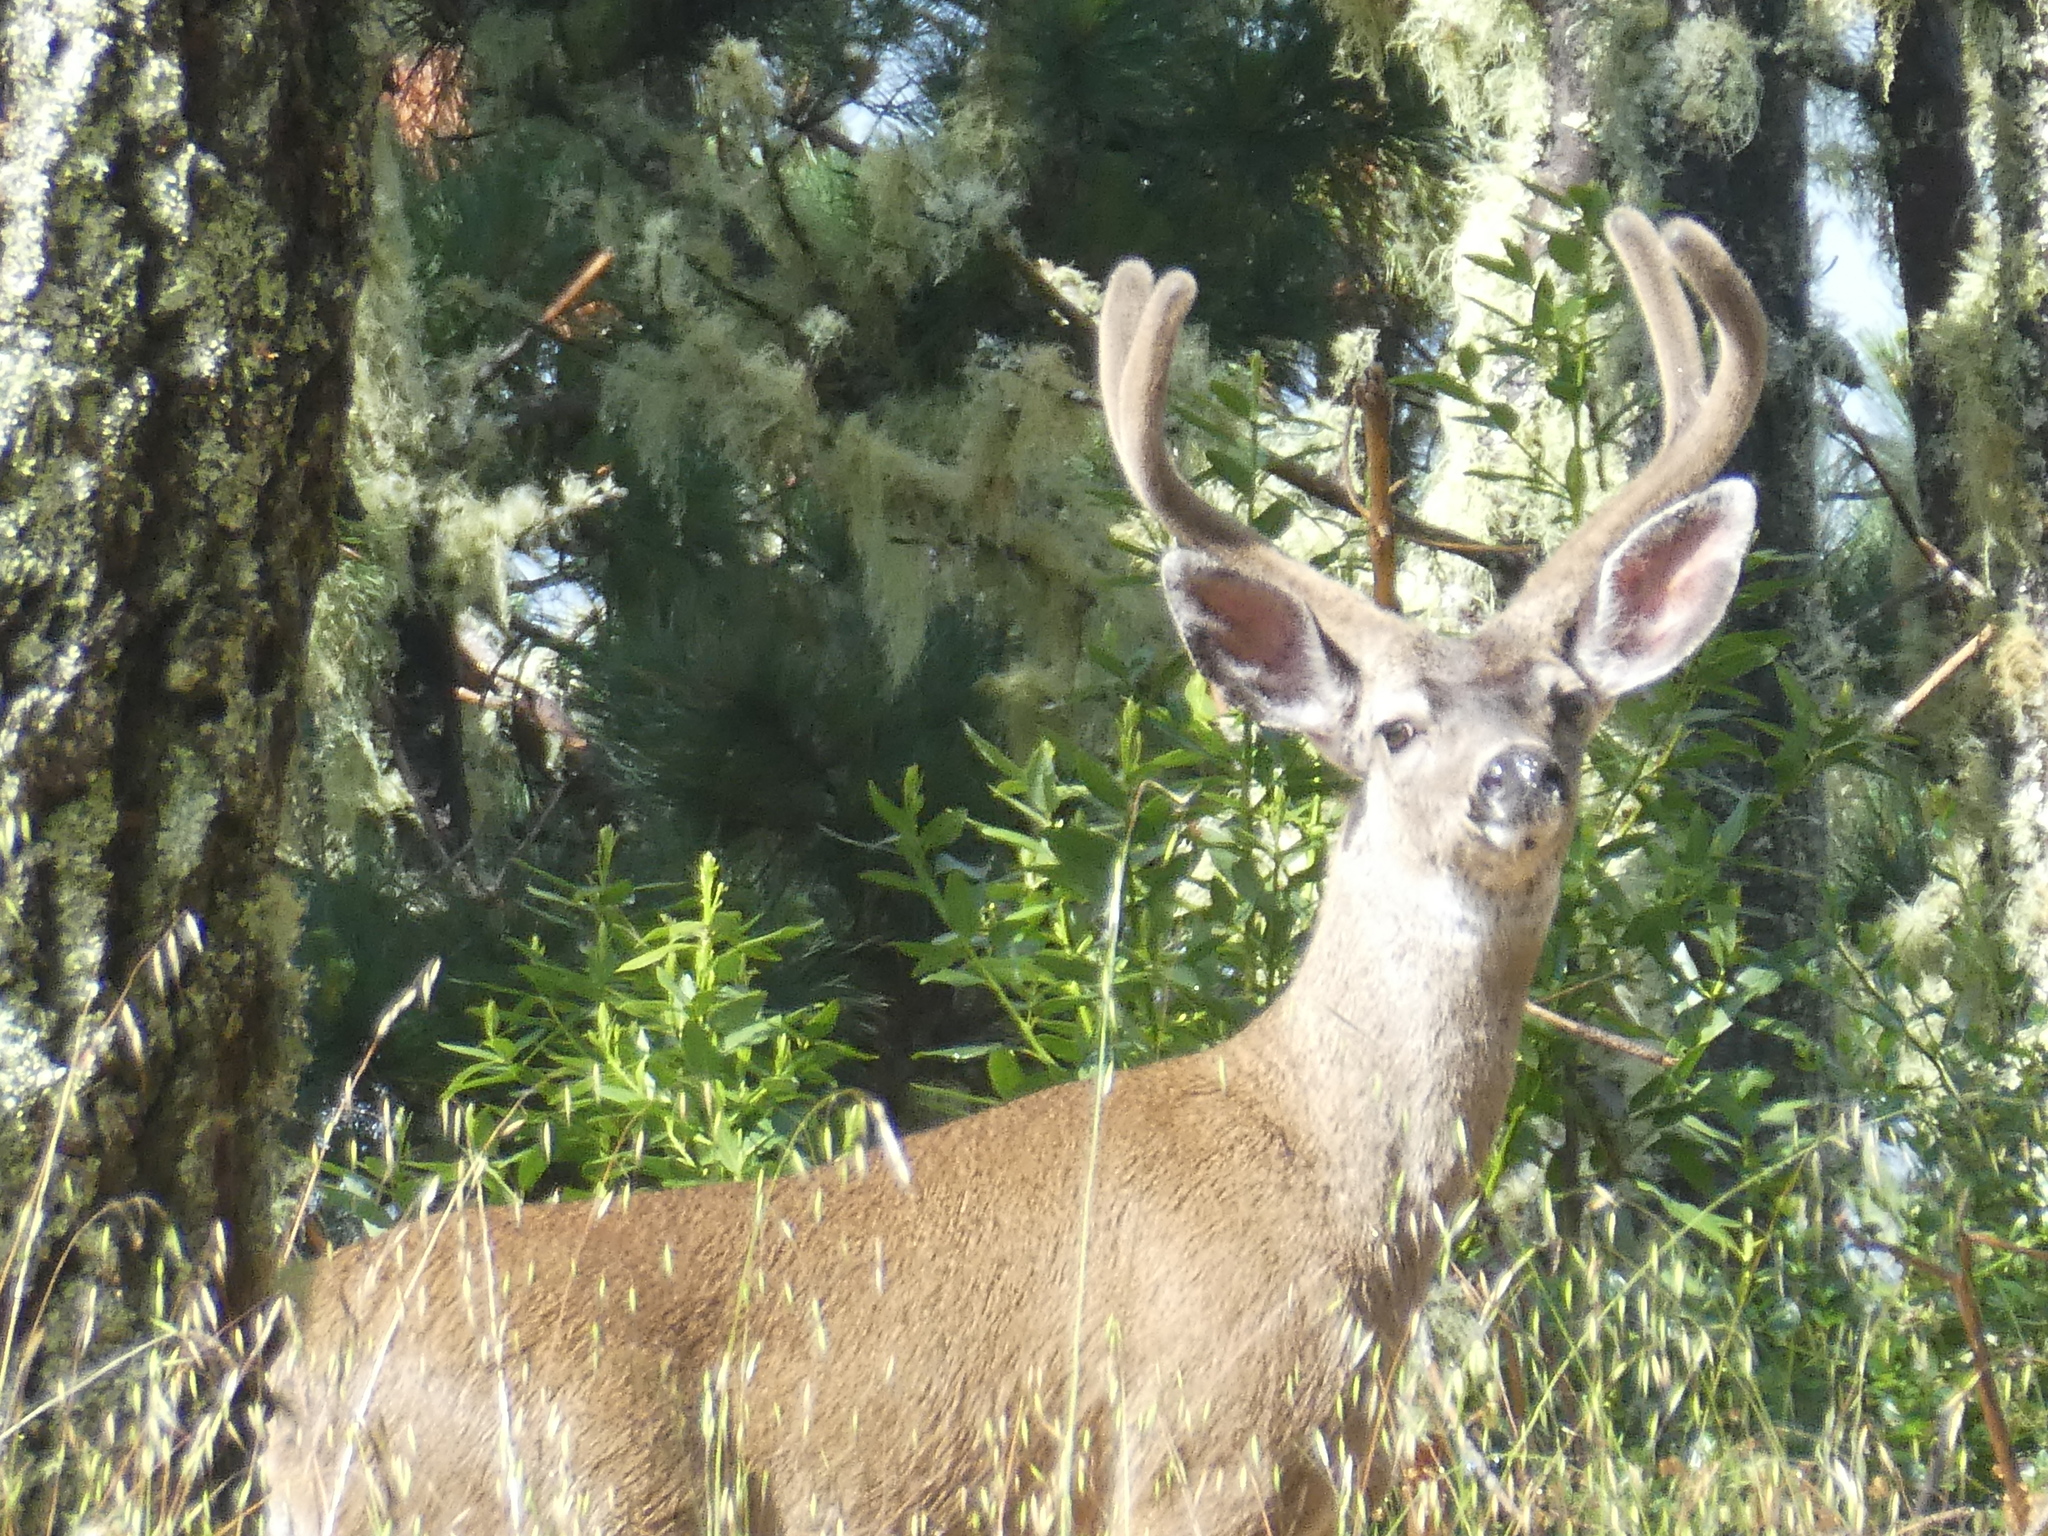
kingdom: Animalia
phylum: Chordata
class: Mammalia
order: Artiodactyla
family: Cervidae
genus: Odocoileus
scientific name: Odocoileus hemionus
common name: Mule deer
